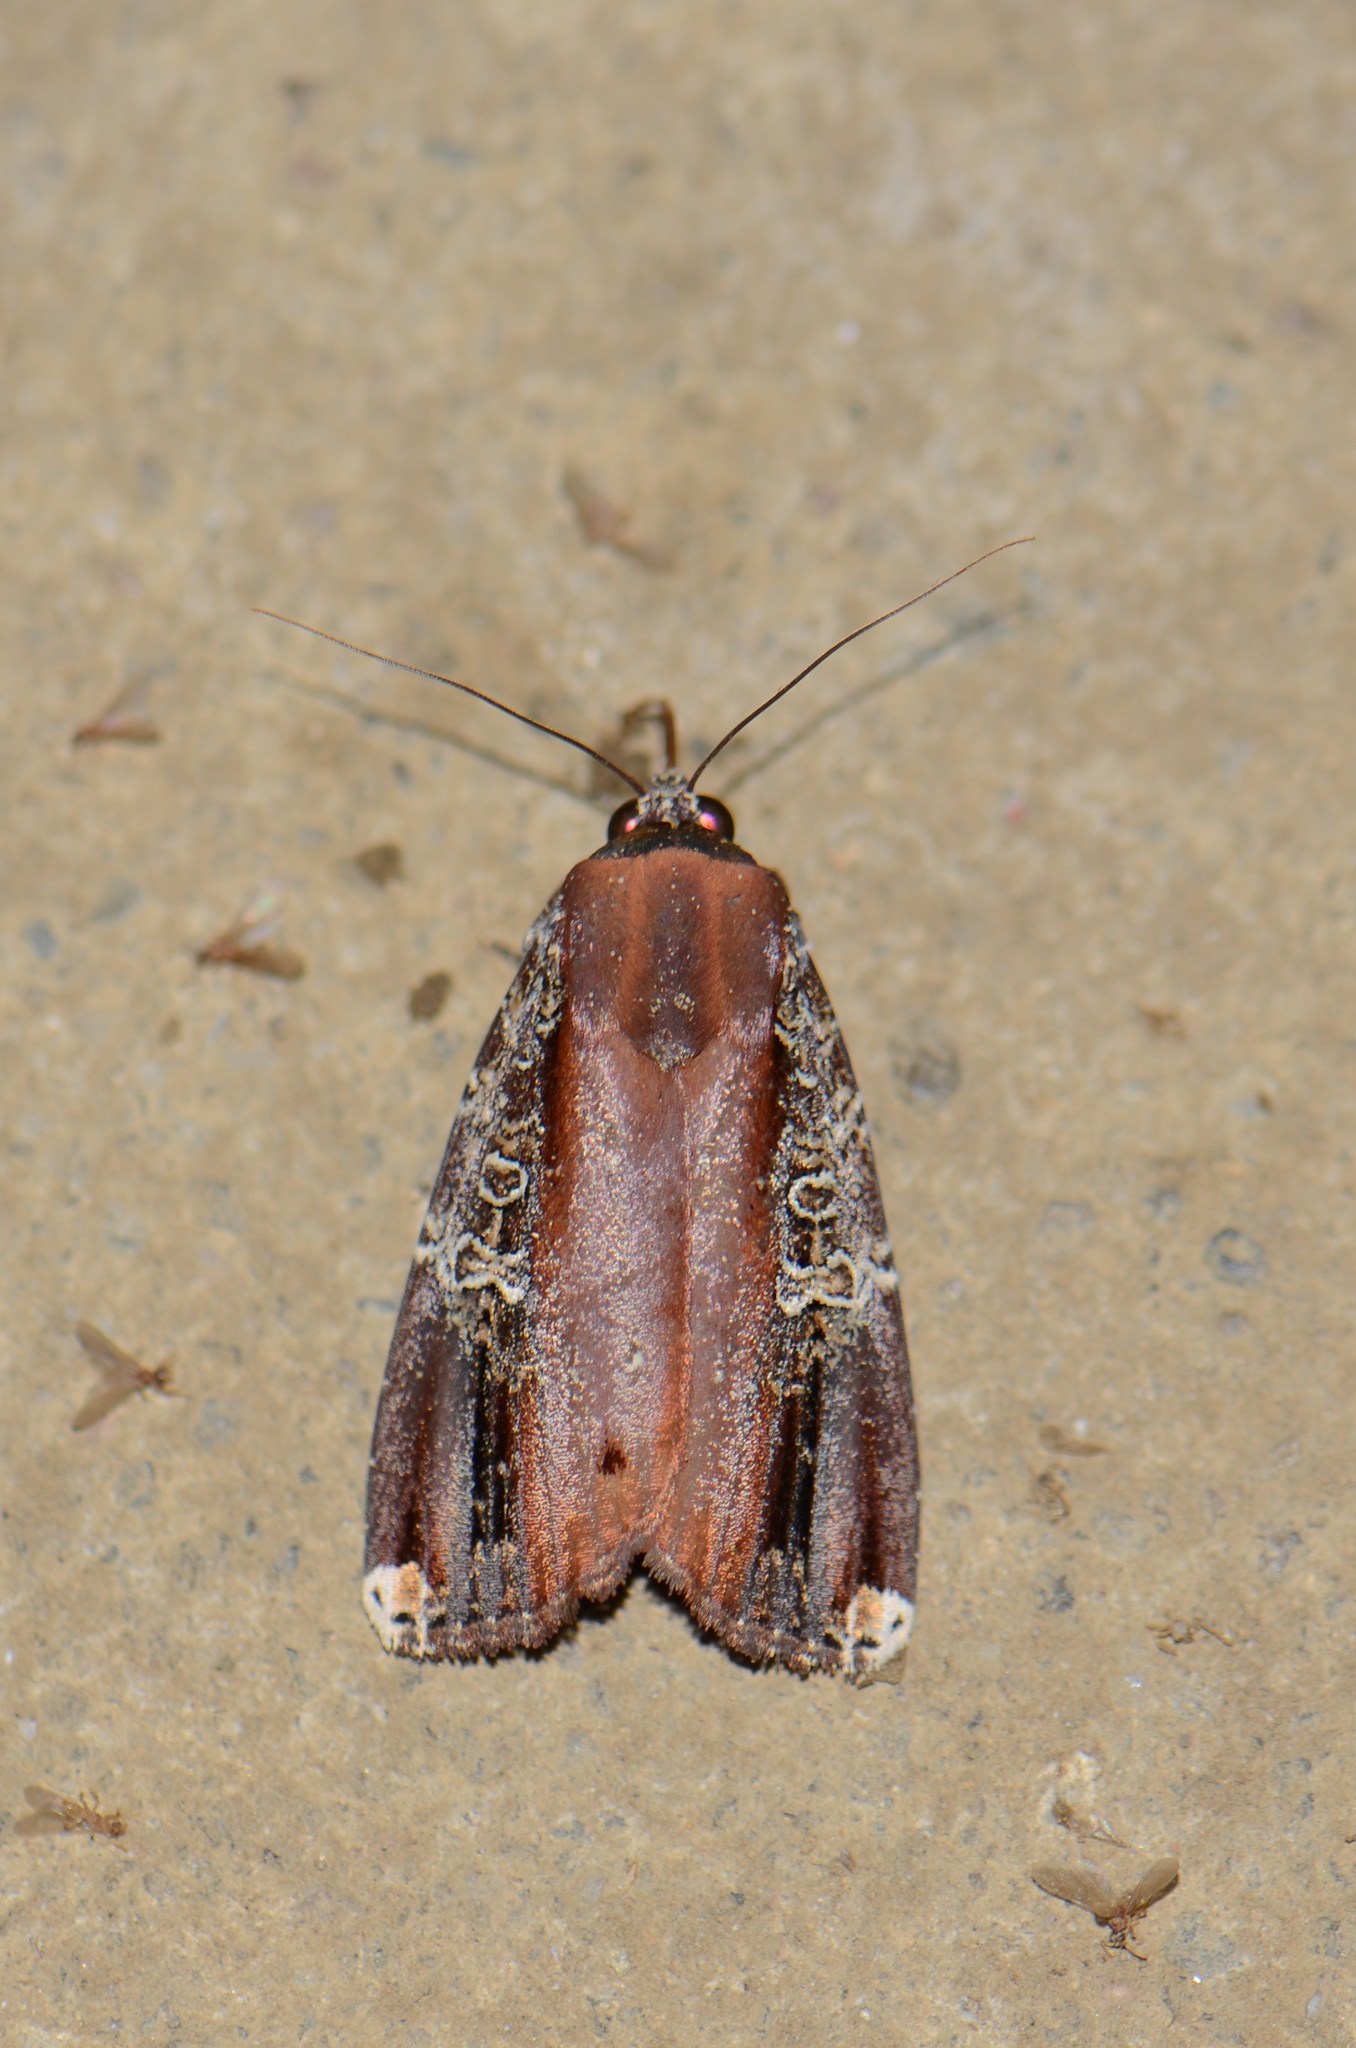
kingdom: Animalia
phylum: Arthropoda
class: Insecta
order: Lepidoptera
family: Noctuidae
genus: Callyna
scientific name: Callyna semivitta
